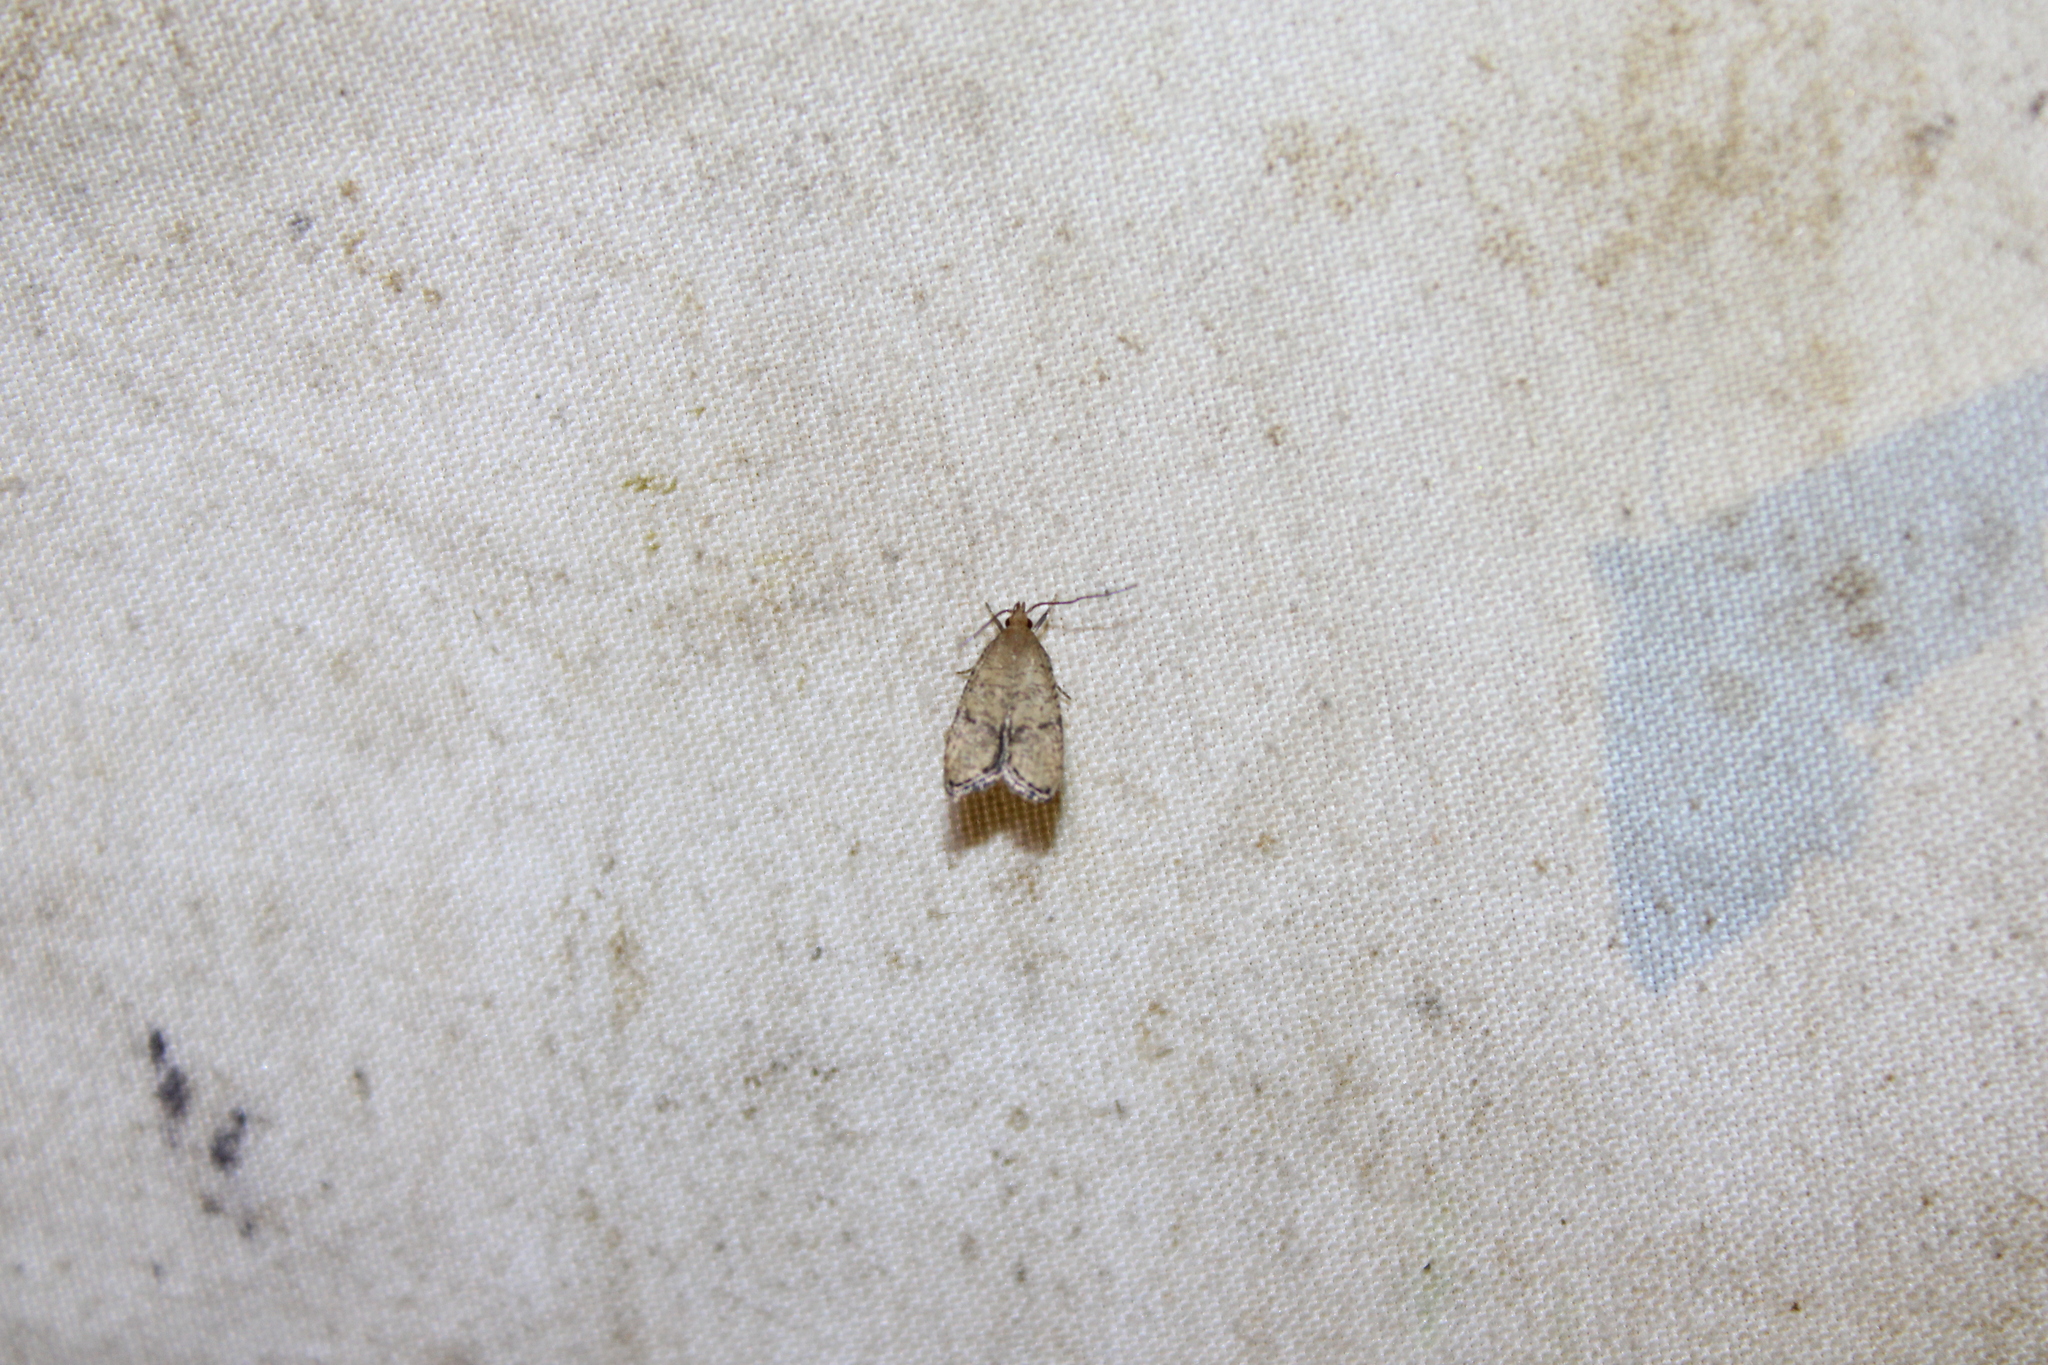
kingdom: Animalia
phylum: Arthropoda
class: Insecta
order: Lepidoptera
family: Depressariidae
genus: Psilocorsis
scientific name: Psilocorsis quercicella
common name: Oak leaftier moth
